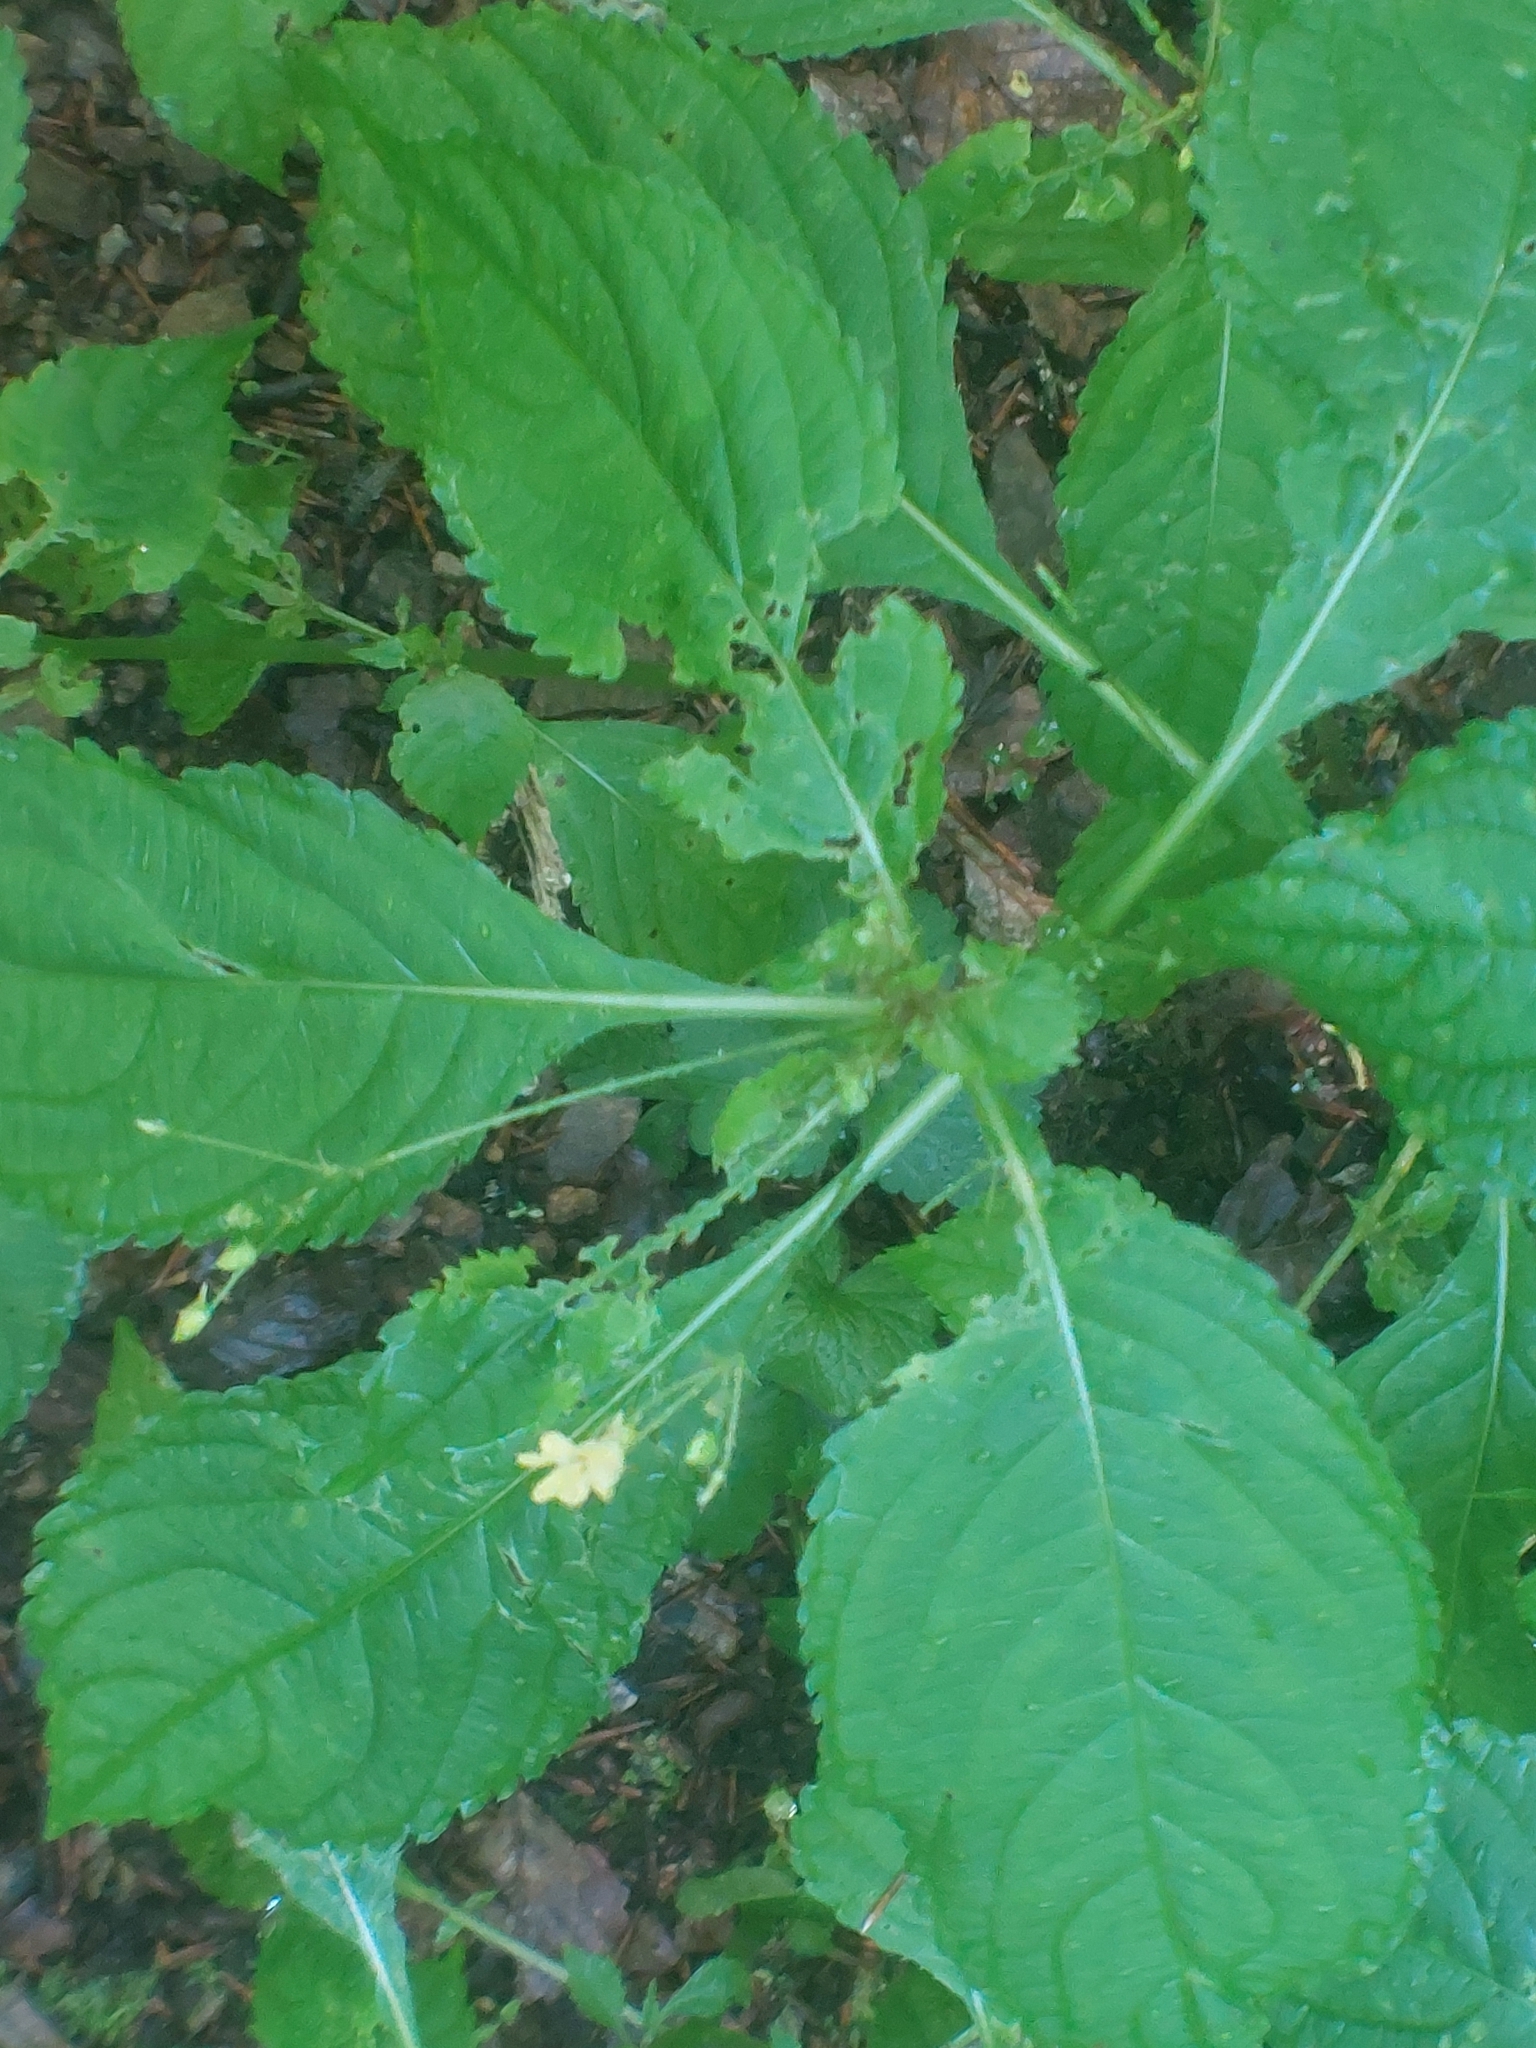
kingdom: Plantae
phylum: Tracheophyta
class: Magnoliopsida
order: Ericales
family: Balsaminaceae
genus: Impatiens
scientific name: Impatiens parviflora
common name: Small balsam
